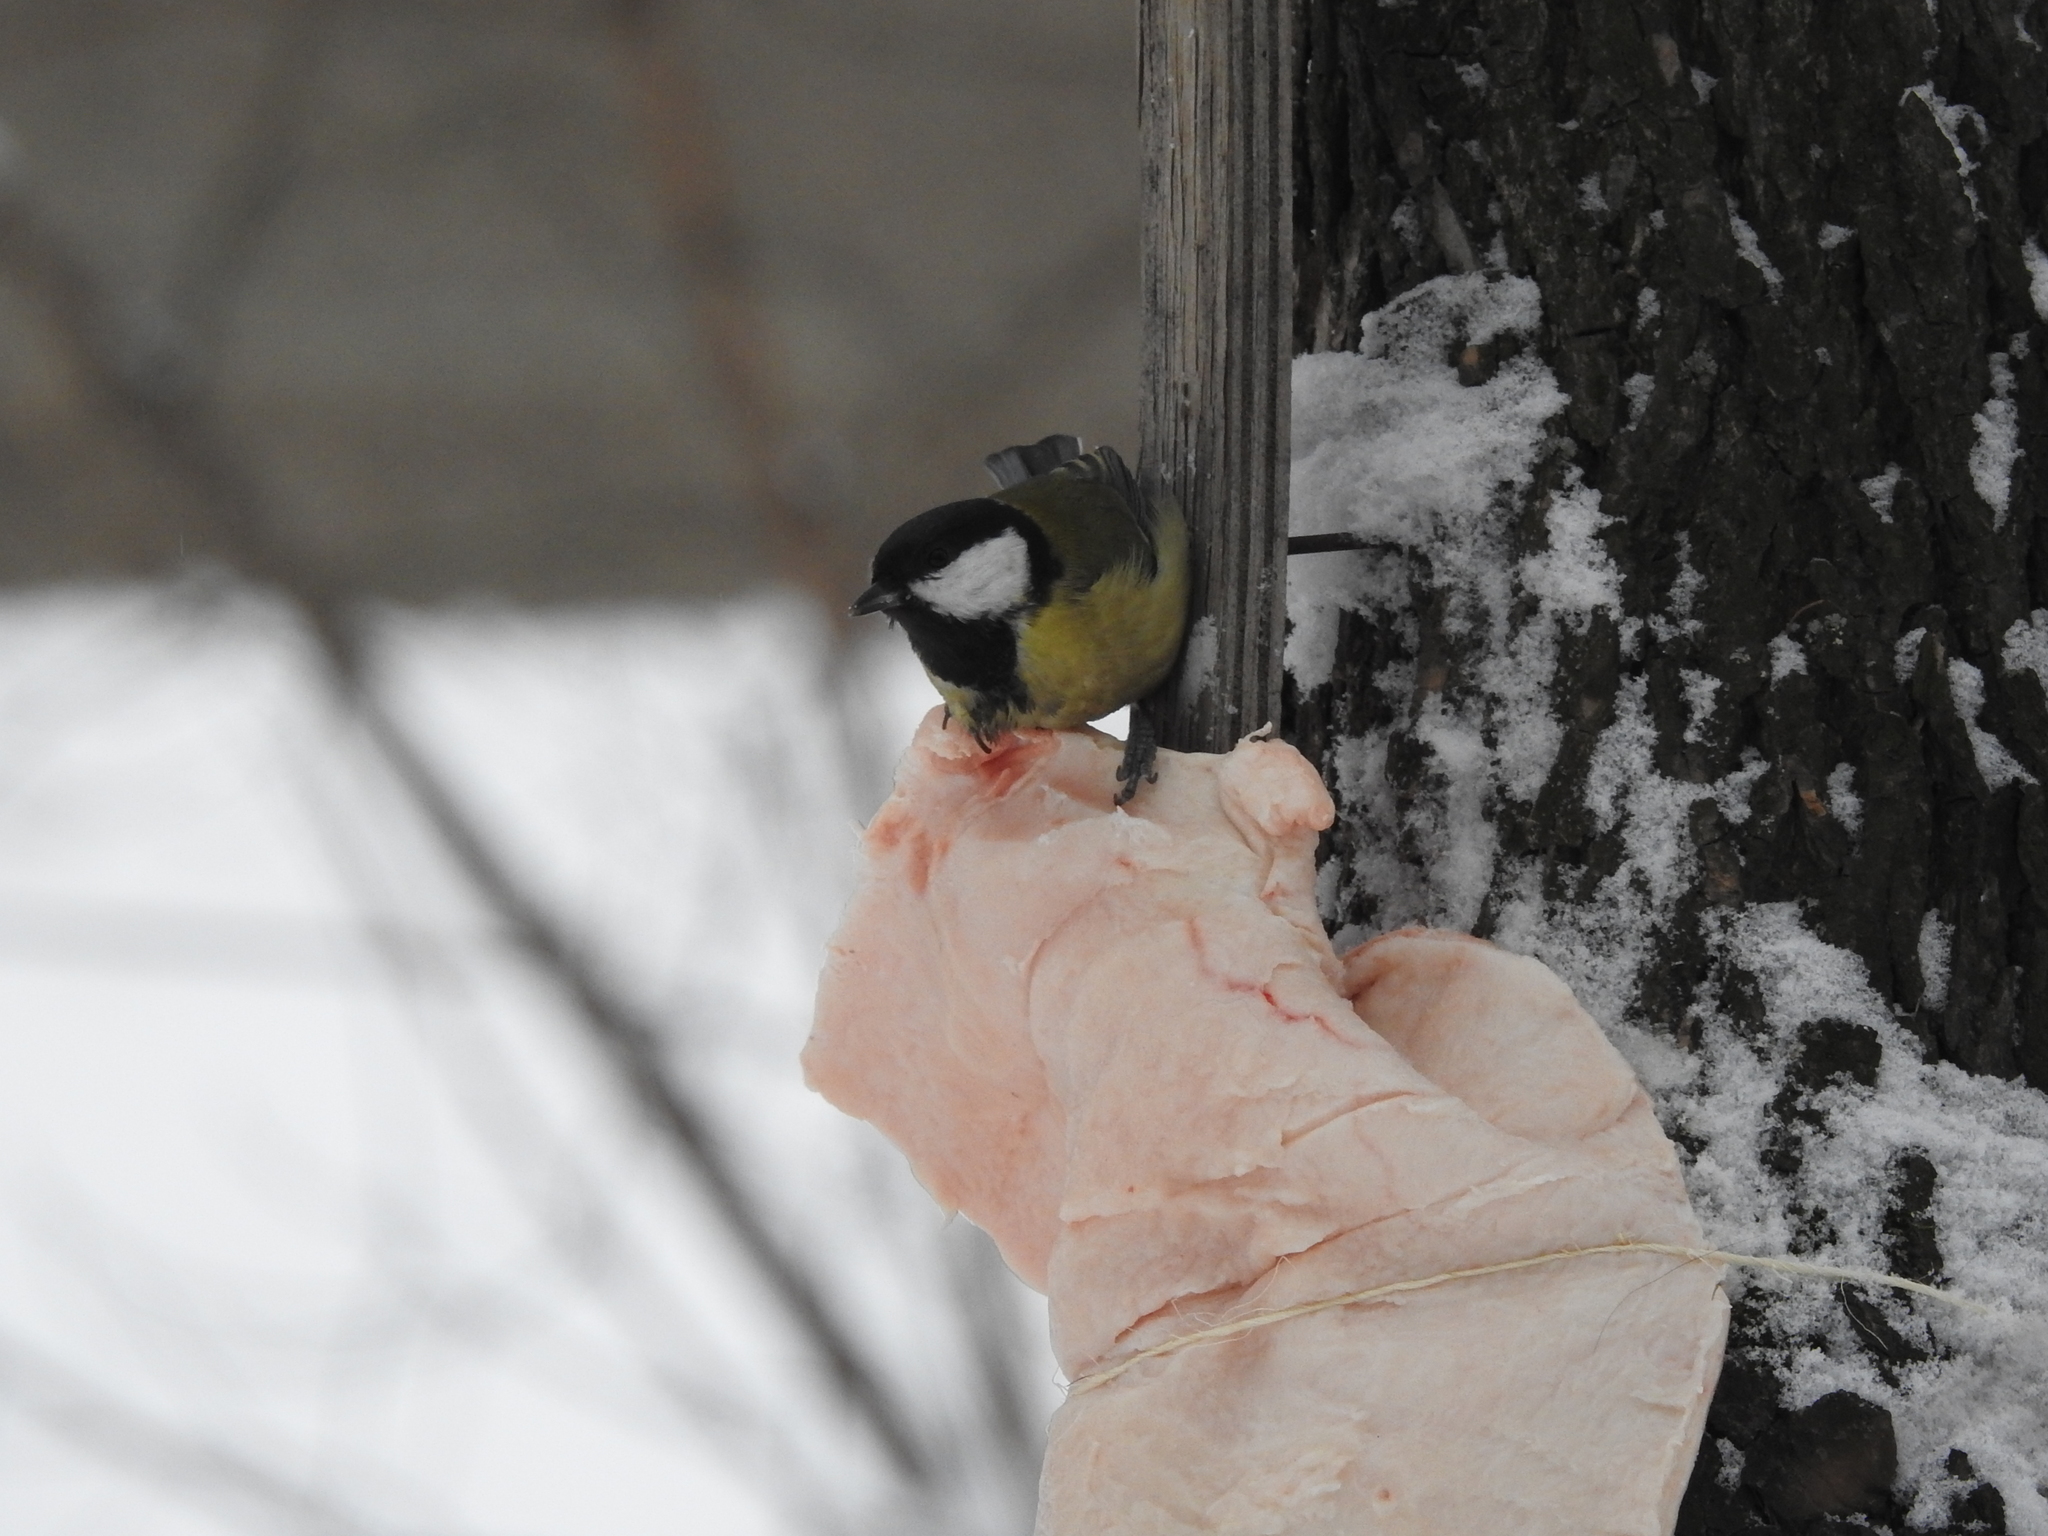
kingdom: Animalia
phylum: Chordata
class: Aves
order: Passeriformes
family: Paridae
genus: Parus
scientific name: Parus major
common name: Great tit
